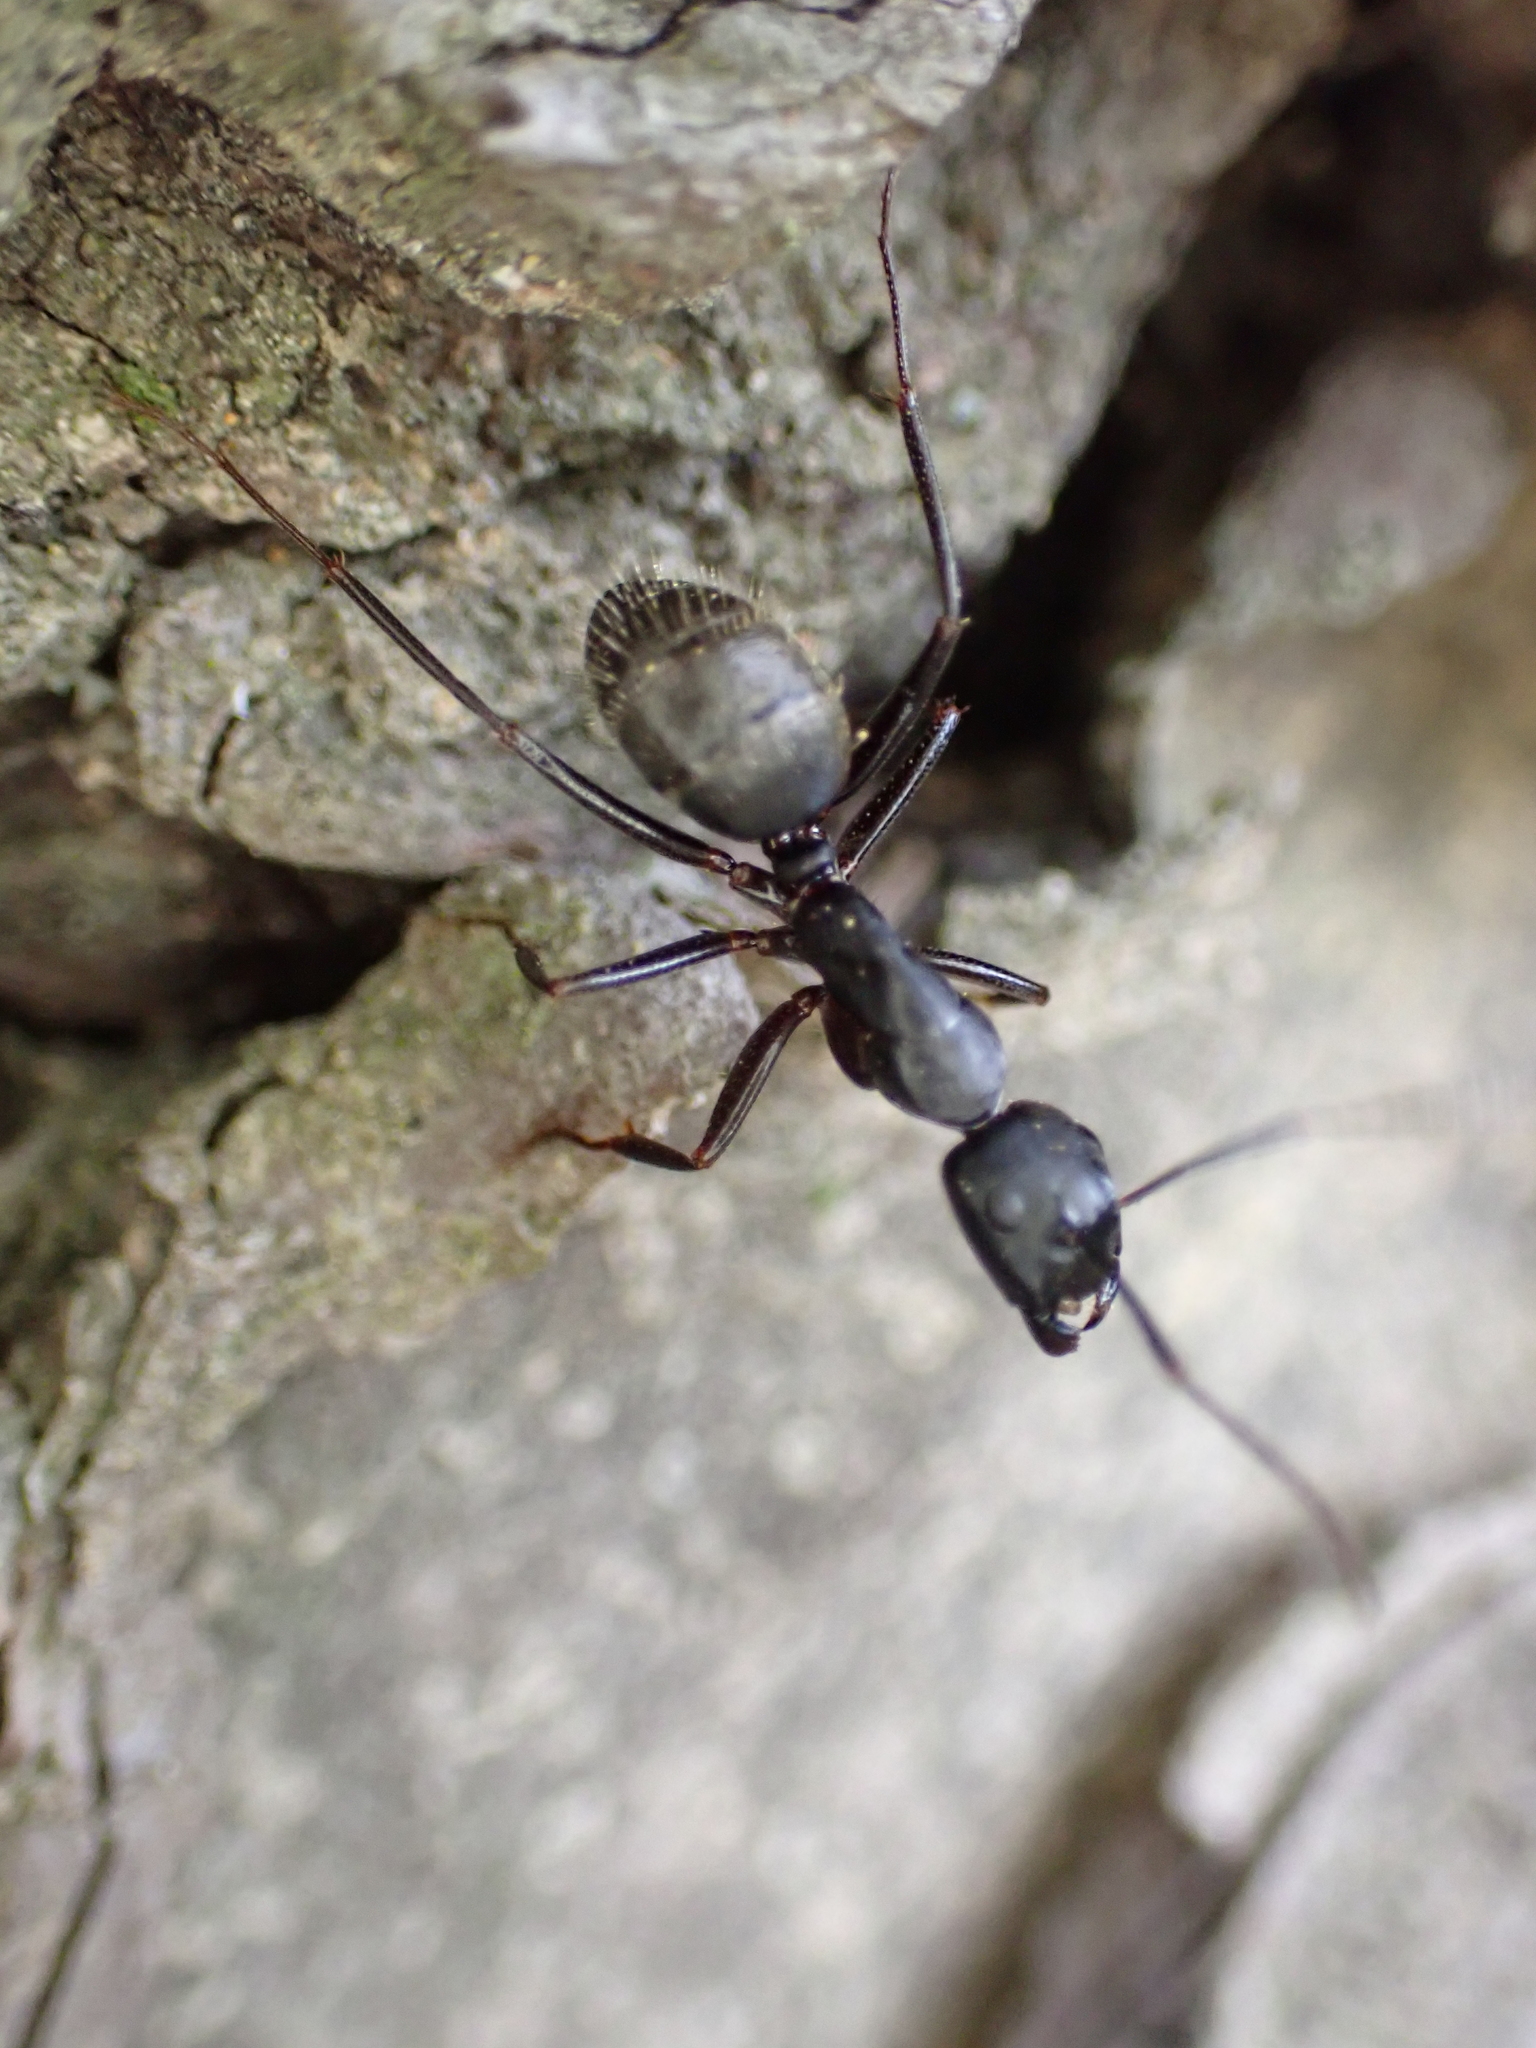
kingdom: Animalia
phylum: Arthropoda
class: Insecta
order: Hymenoptera
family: Formicidae
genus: Camponotus
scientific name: Camponotus pennsylvanicus
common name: Black carpenter ant
